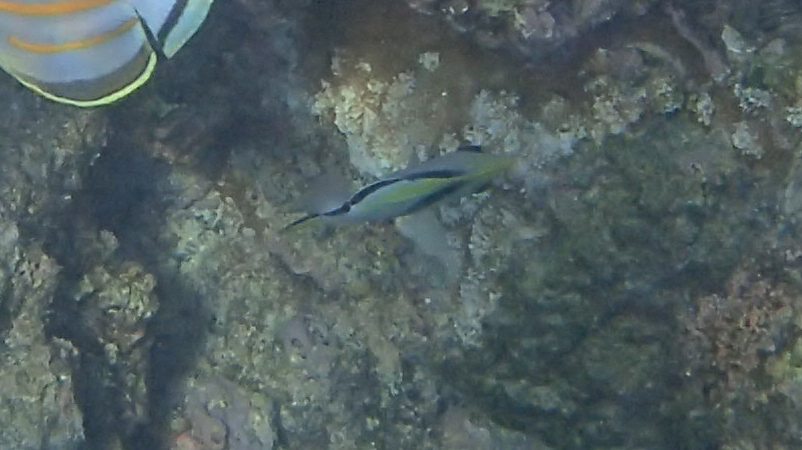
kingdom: Animalia
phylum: Chordata
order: Perciformes
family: Chaetodontidae
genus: Chaetodon
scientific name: Chaetodon unimaculatus
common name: Teardrop butterflyfish
